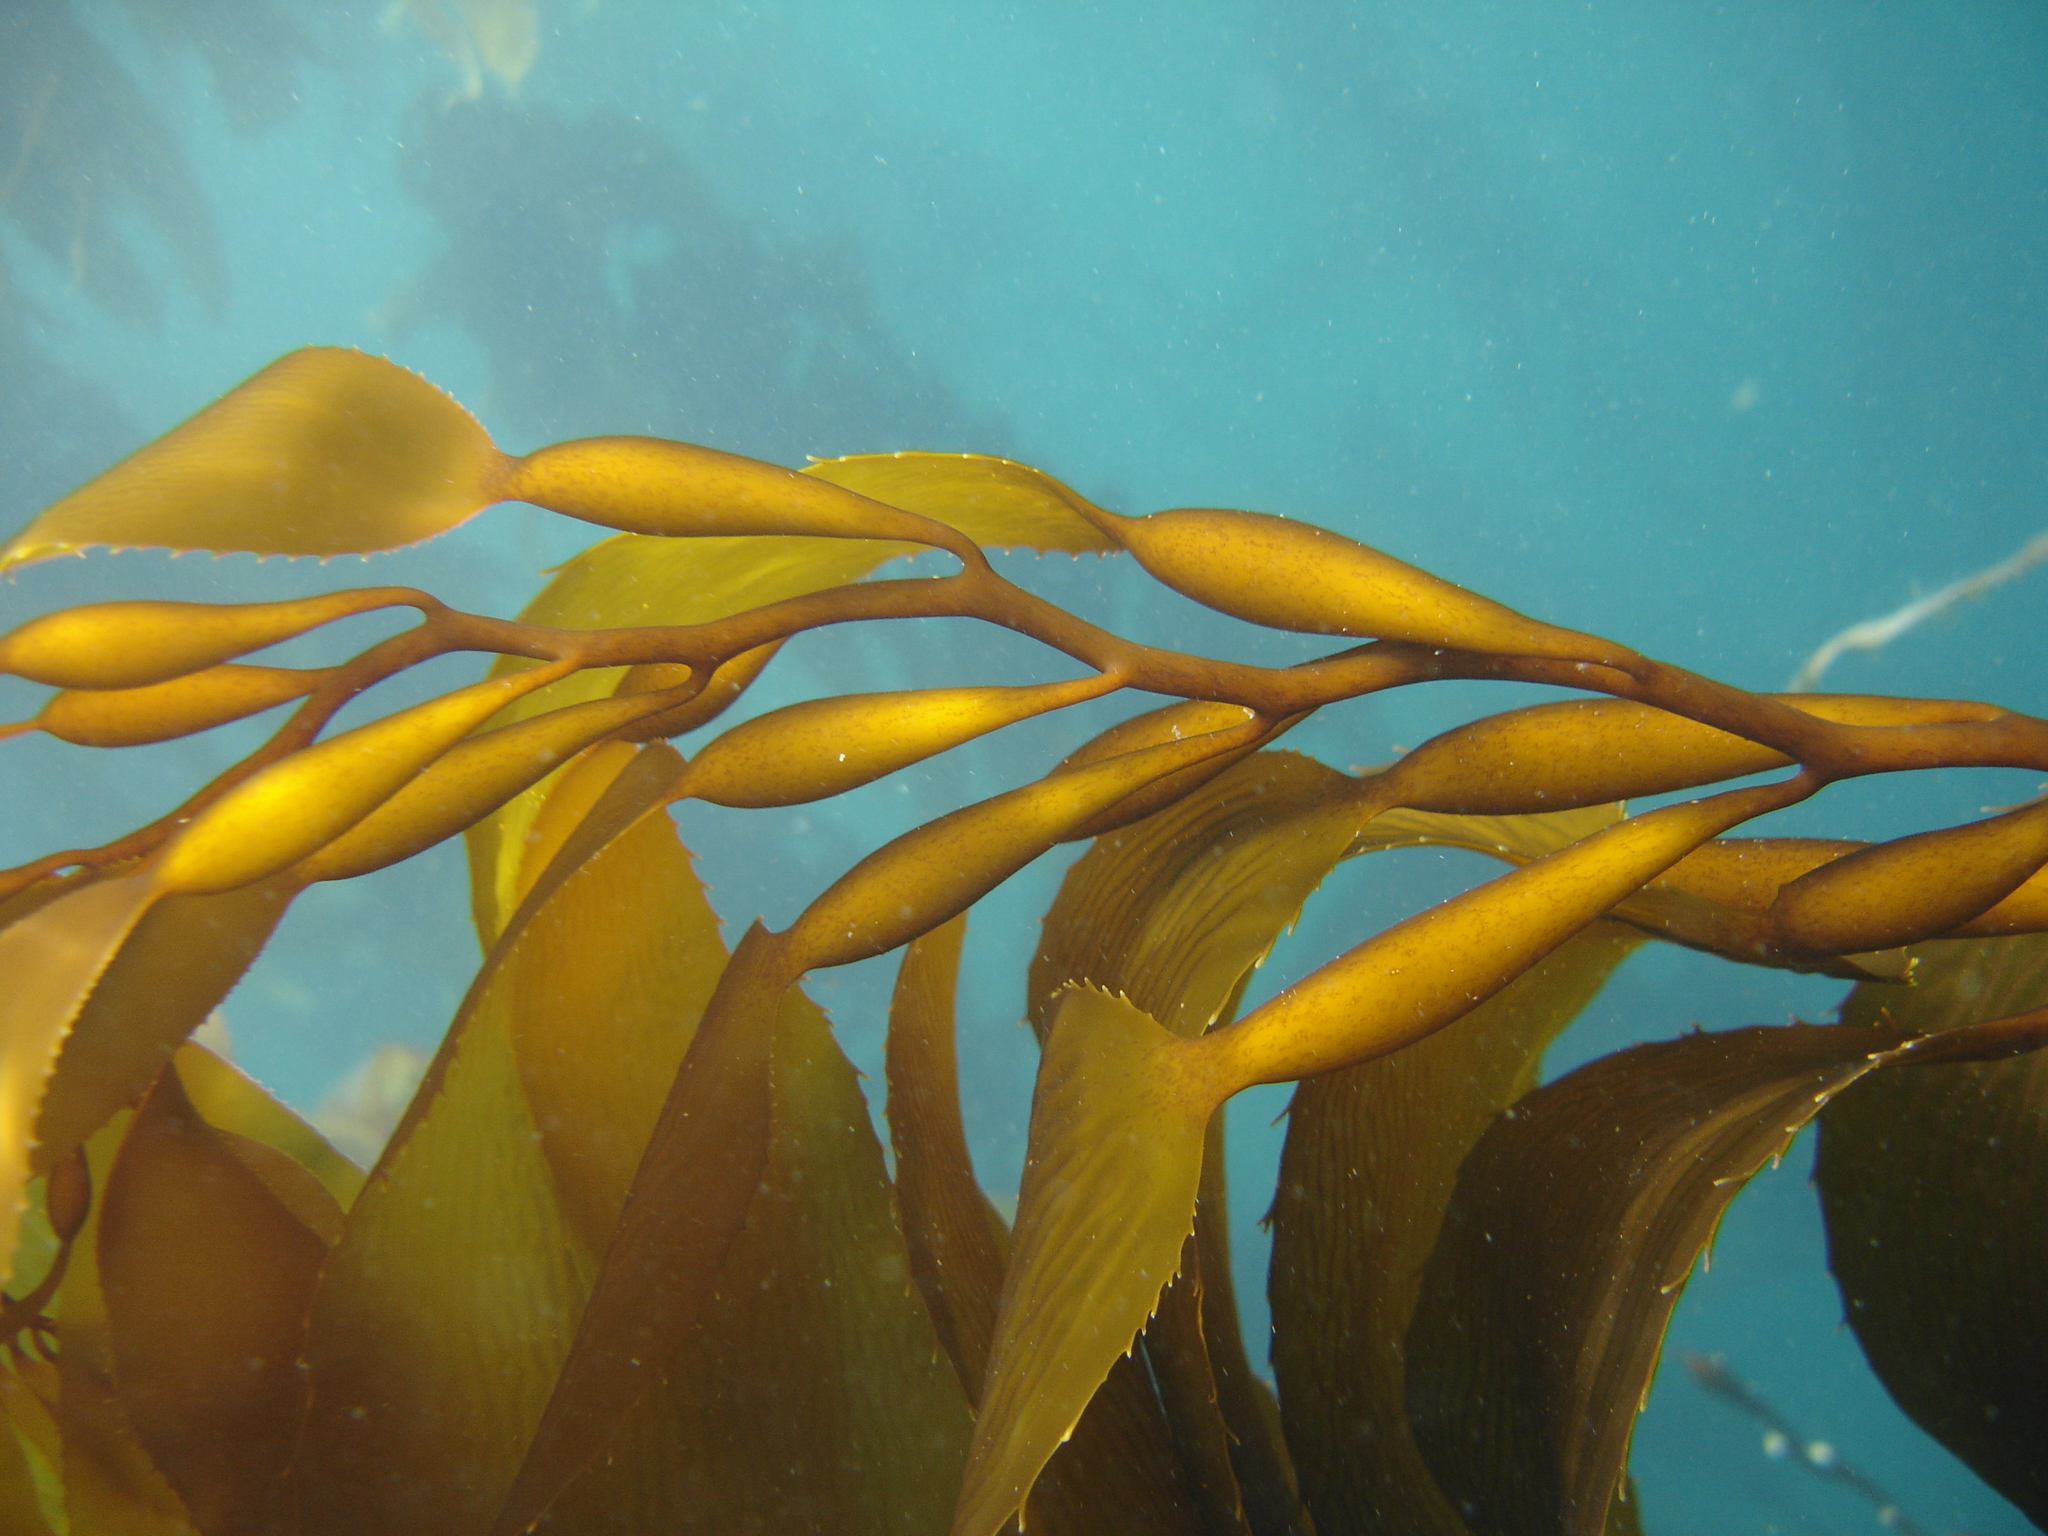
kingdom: Chromista
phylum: Ochrophyta
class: Phaeophyceae
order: Laminariales
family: Laminariaceae
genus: Macrocystis
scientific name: Macrocystis pyrifera
